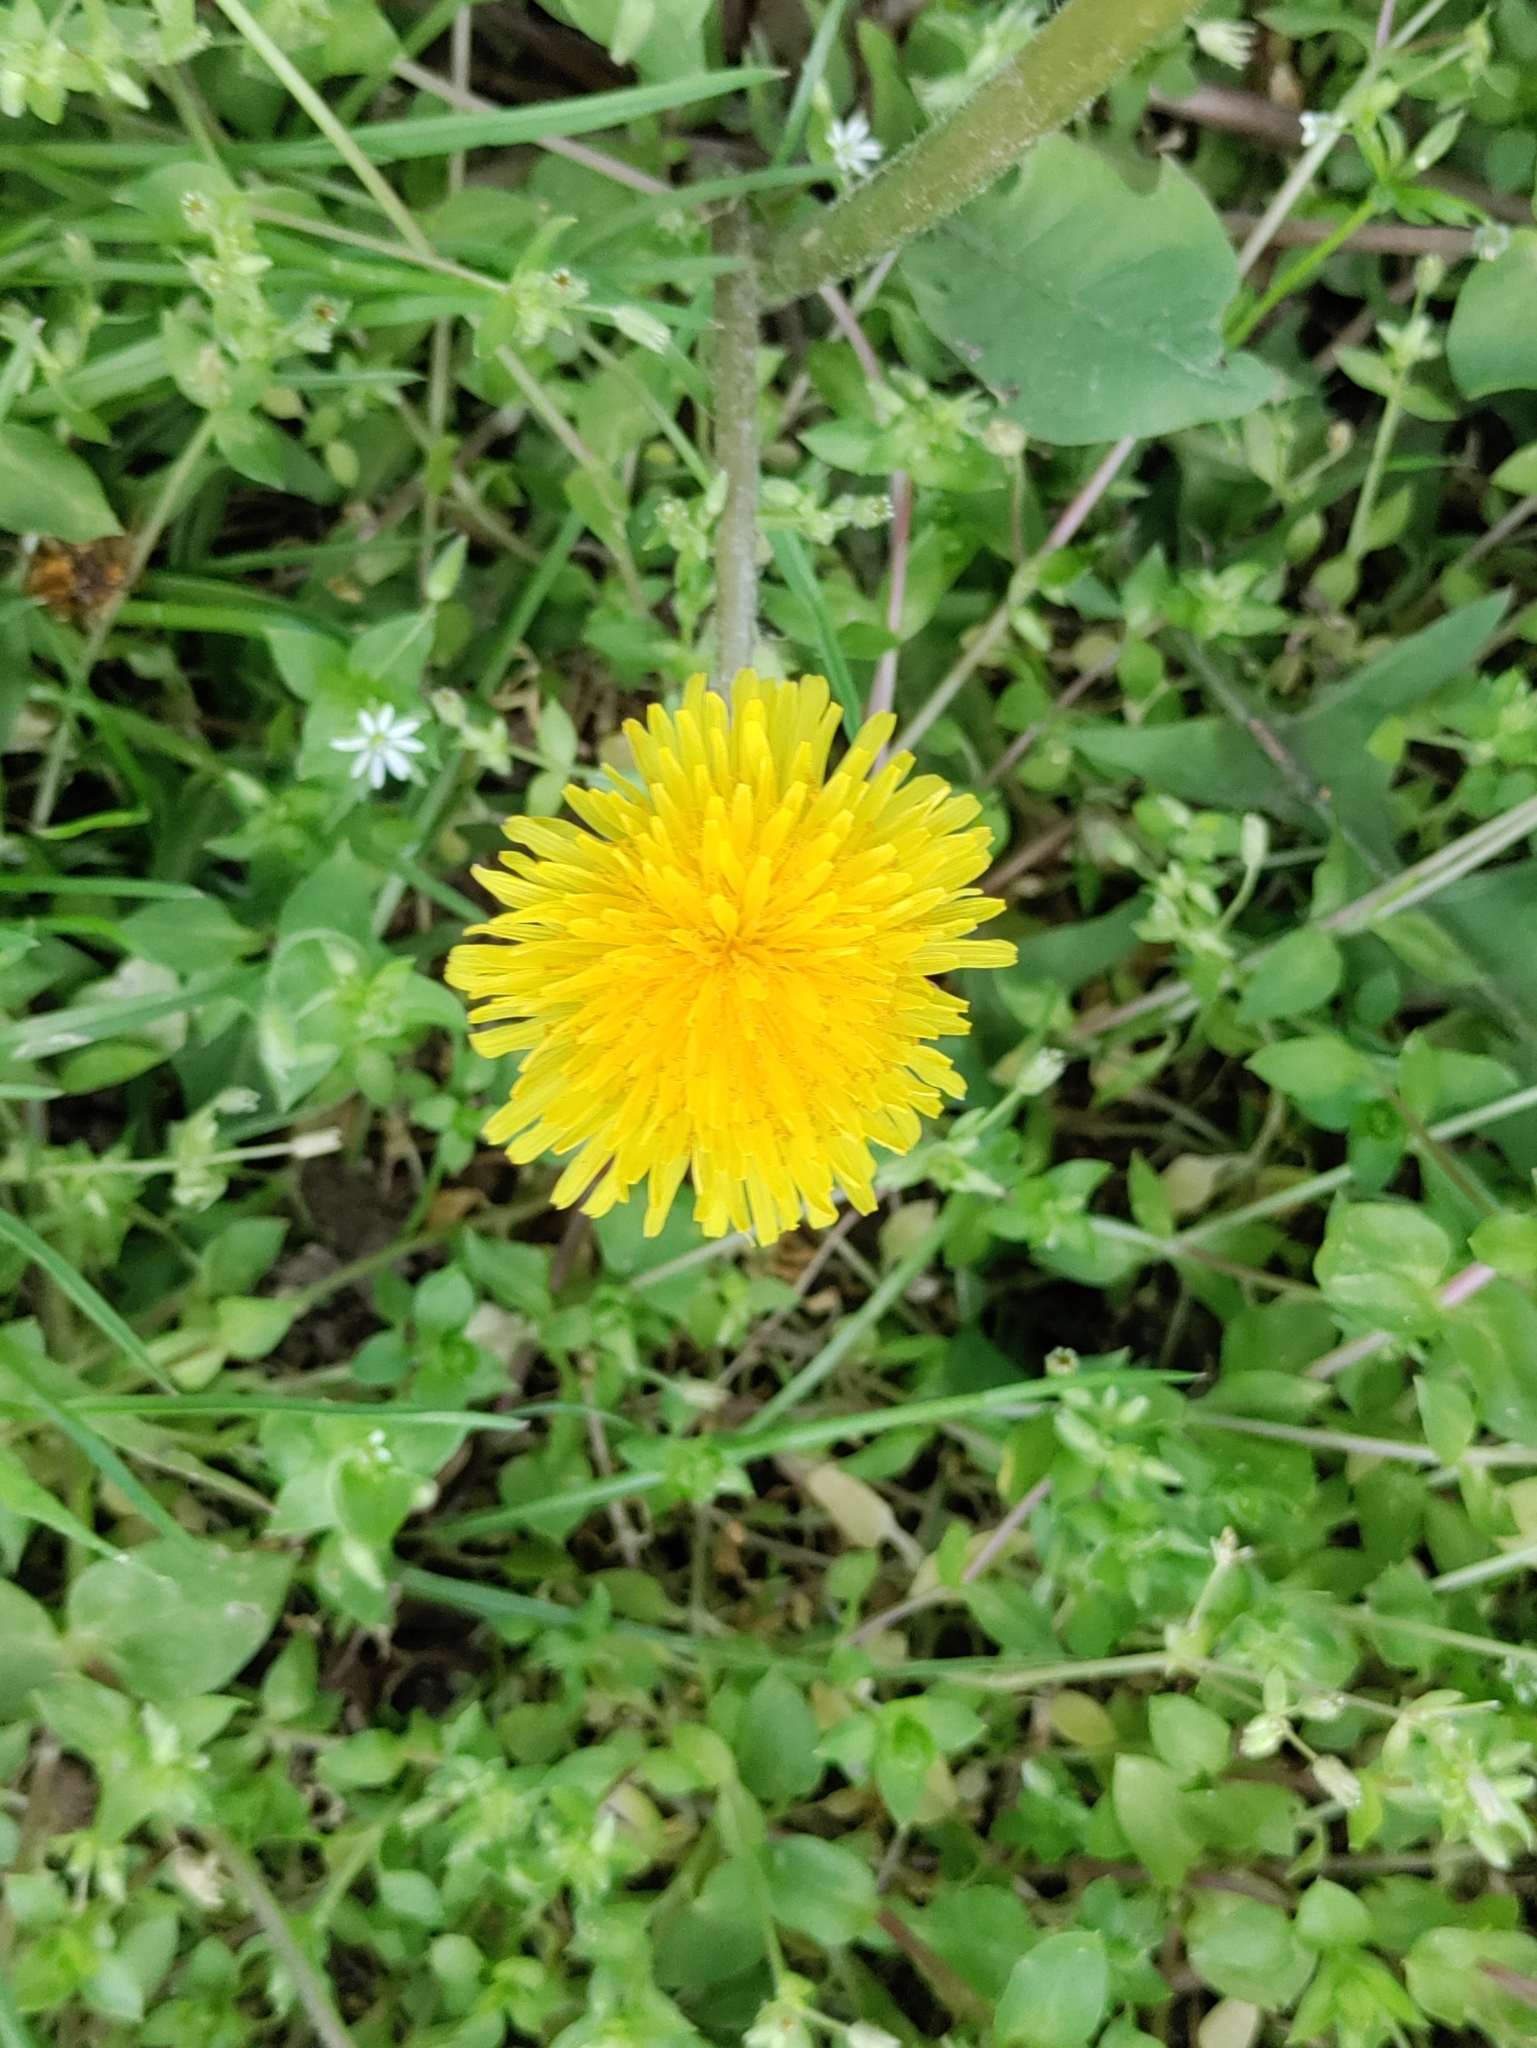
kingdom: Plantae
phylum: Tracheophyta
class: Magnoliopsida
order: Asterales
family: Asteraceae
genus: Taraxacum
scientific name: Taraxacum officinale
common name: Common dandelion
